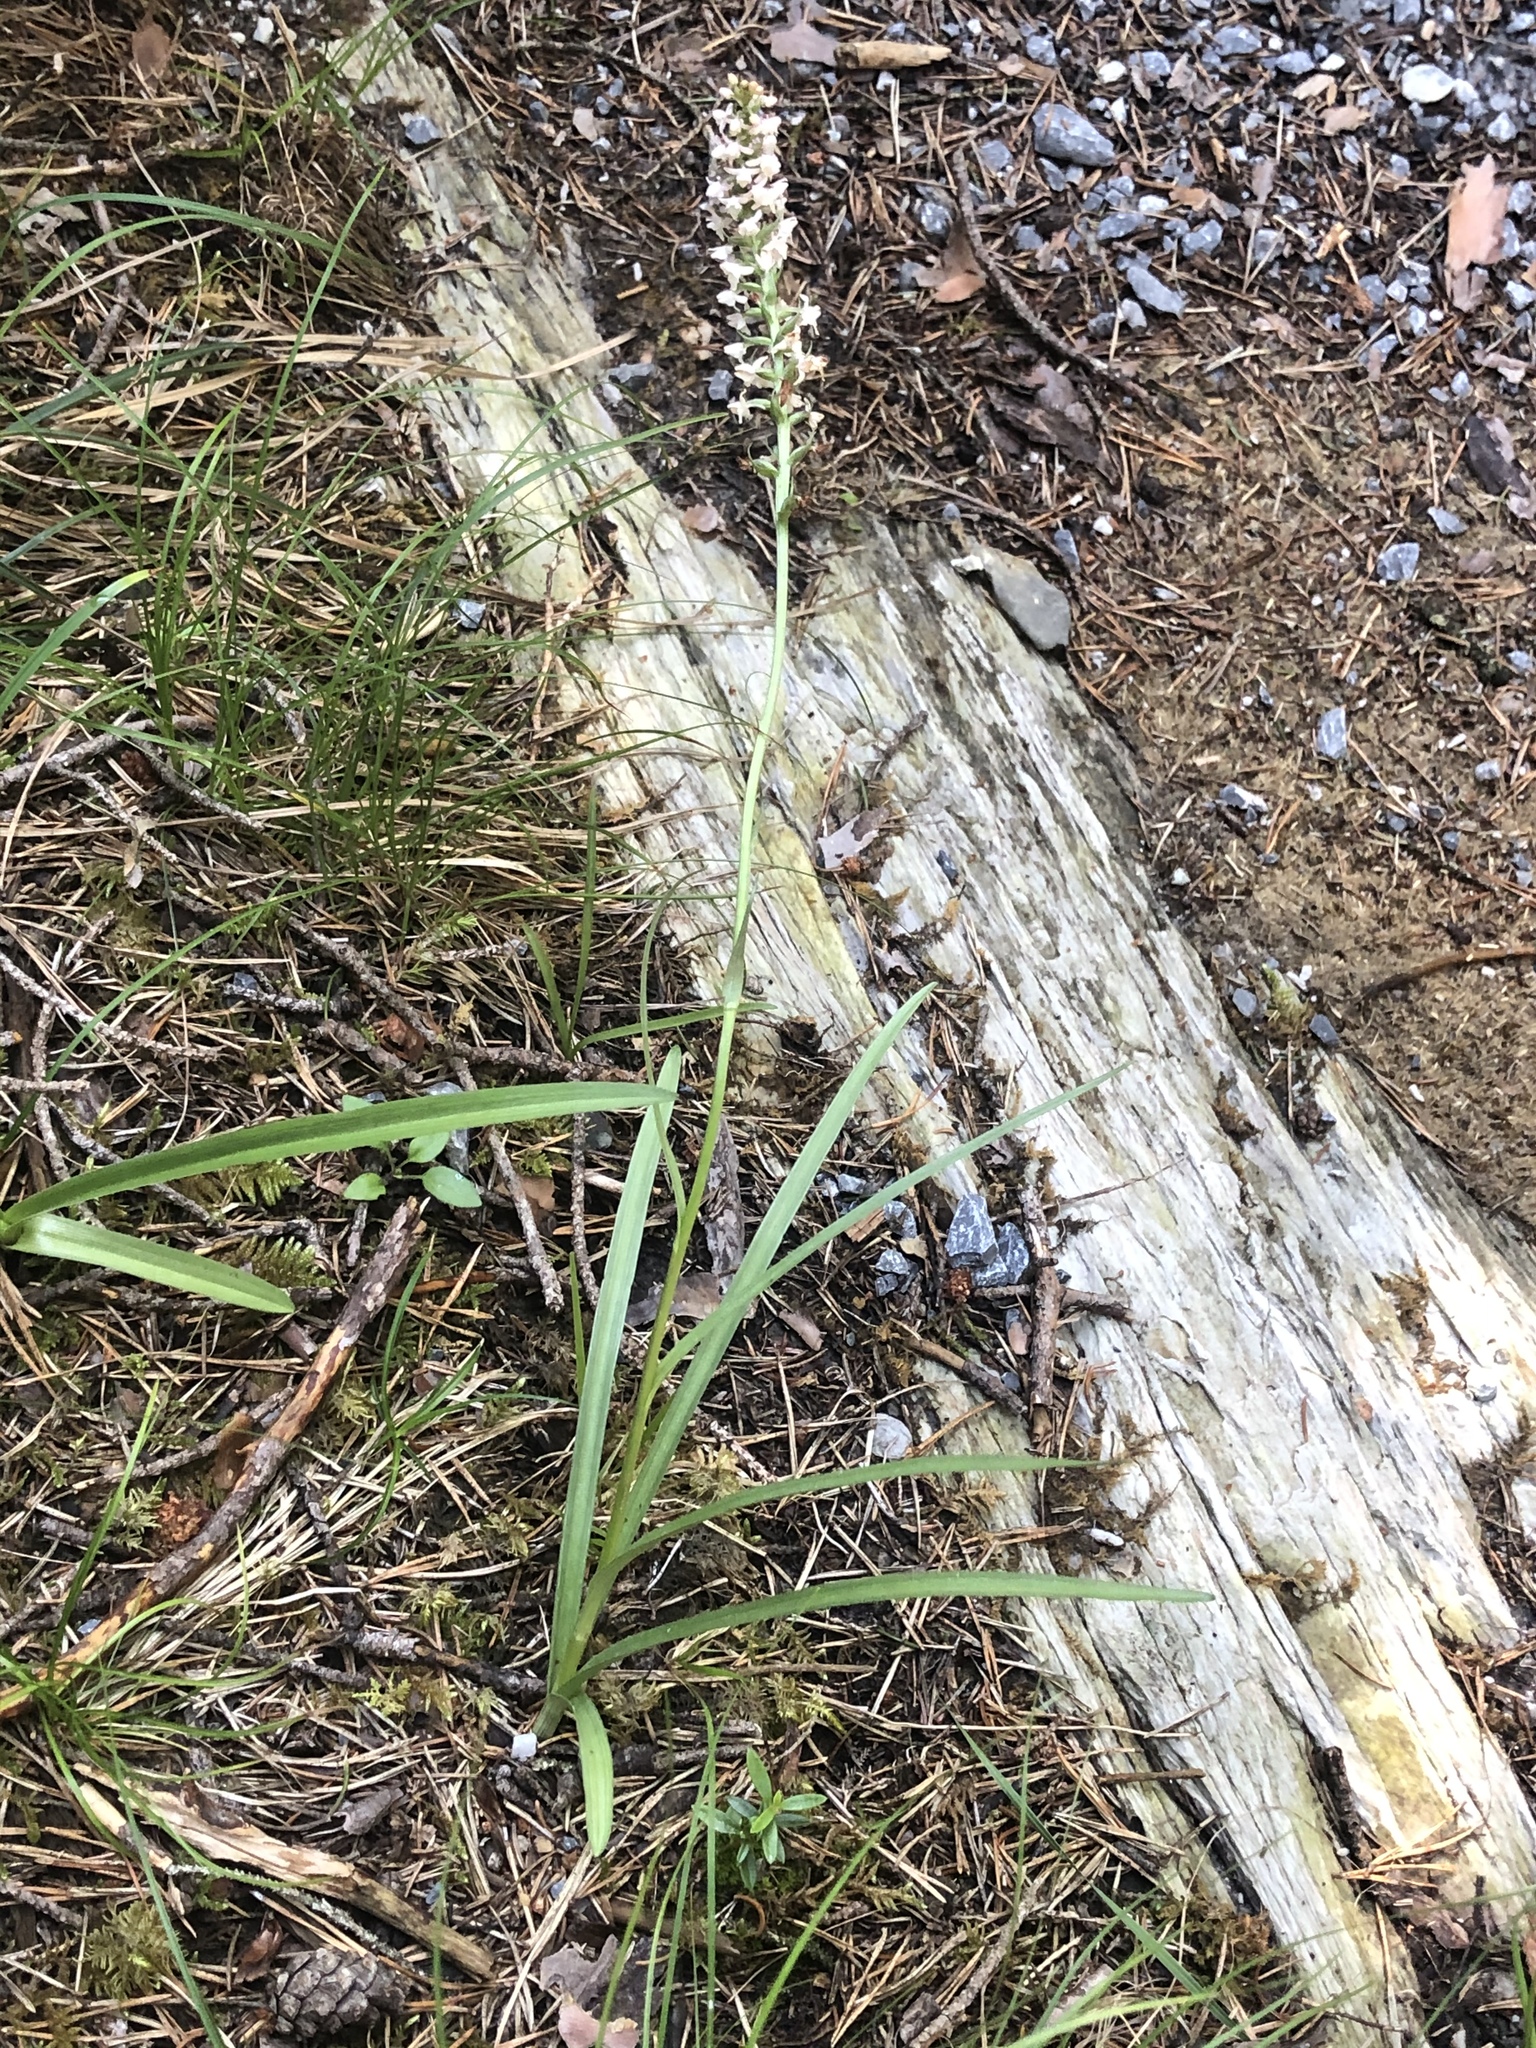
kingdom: Plantae
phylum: Tracheophyta
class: Liliopsida
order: Asparagales
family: Orchidaceae
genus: Gymnadenia
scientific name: Gymnadenia odoratissima
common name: Scented gymnadenia
